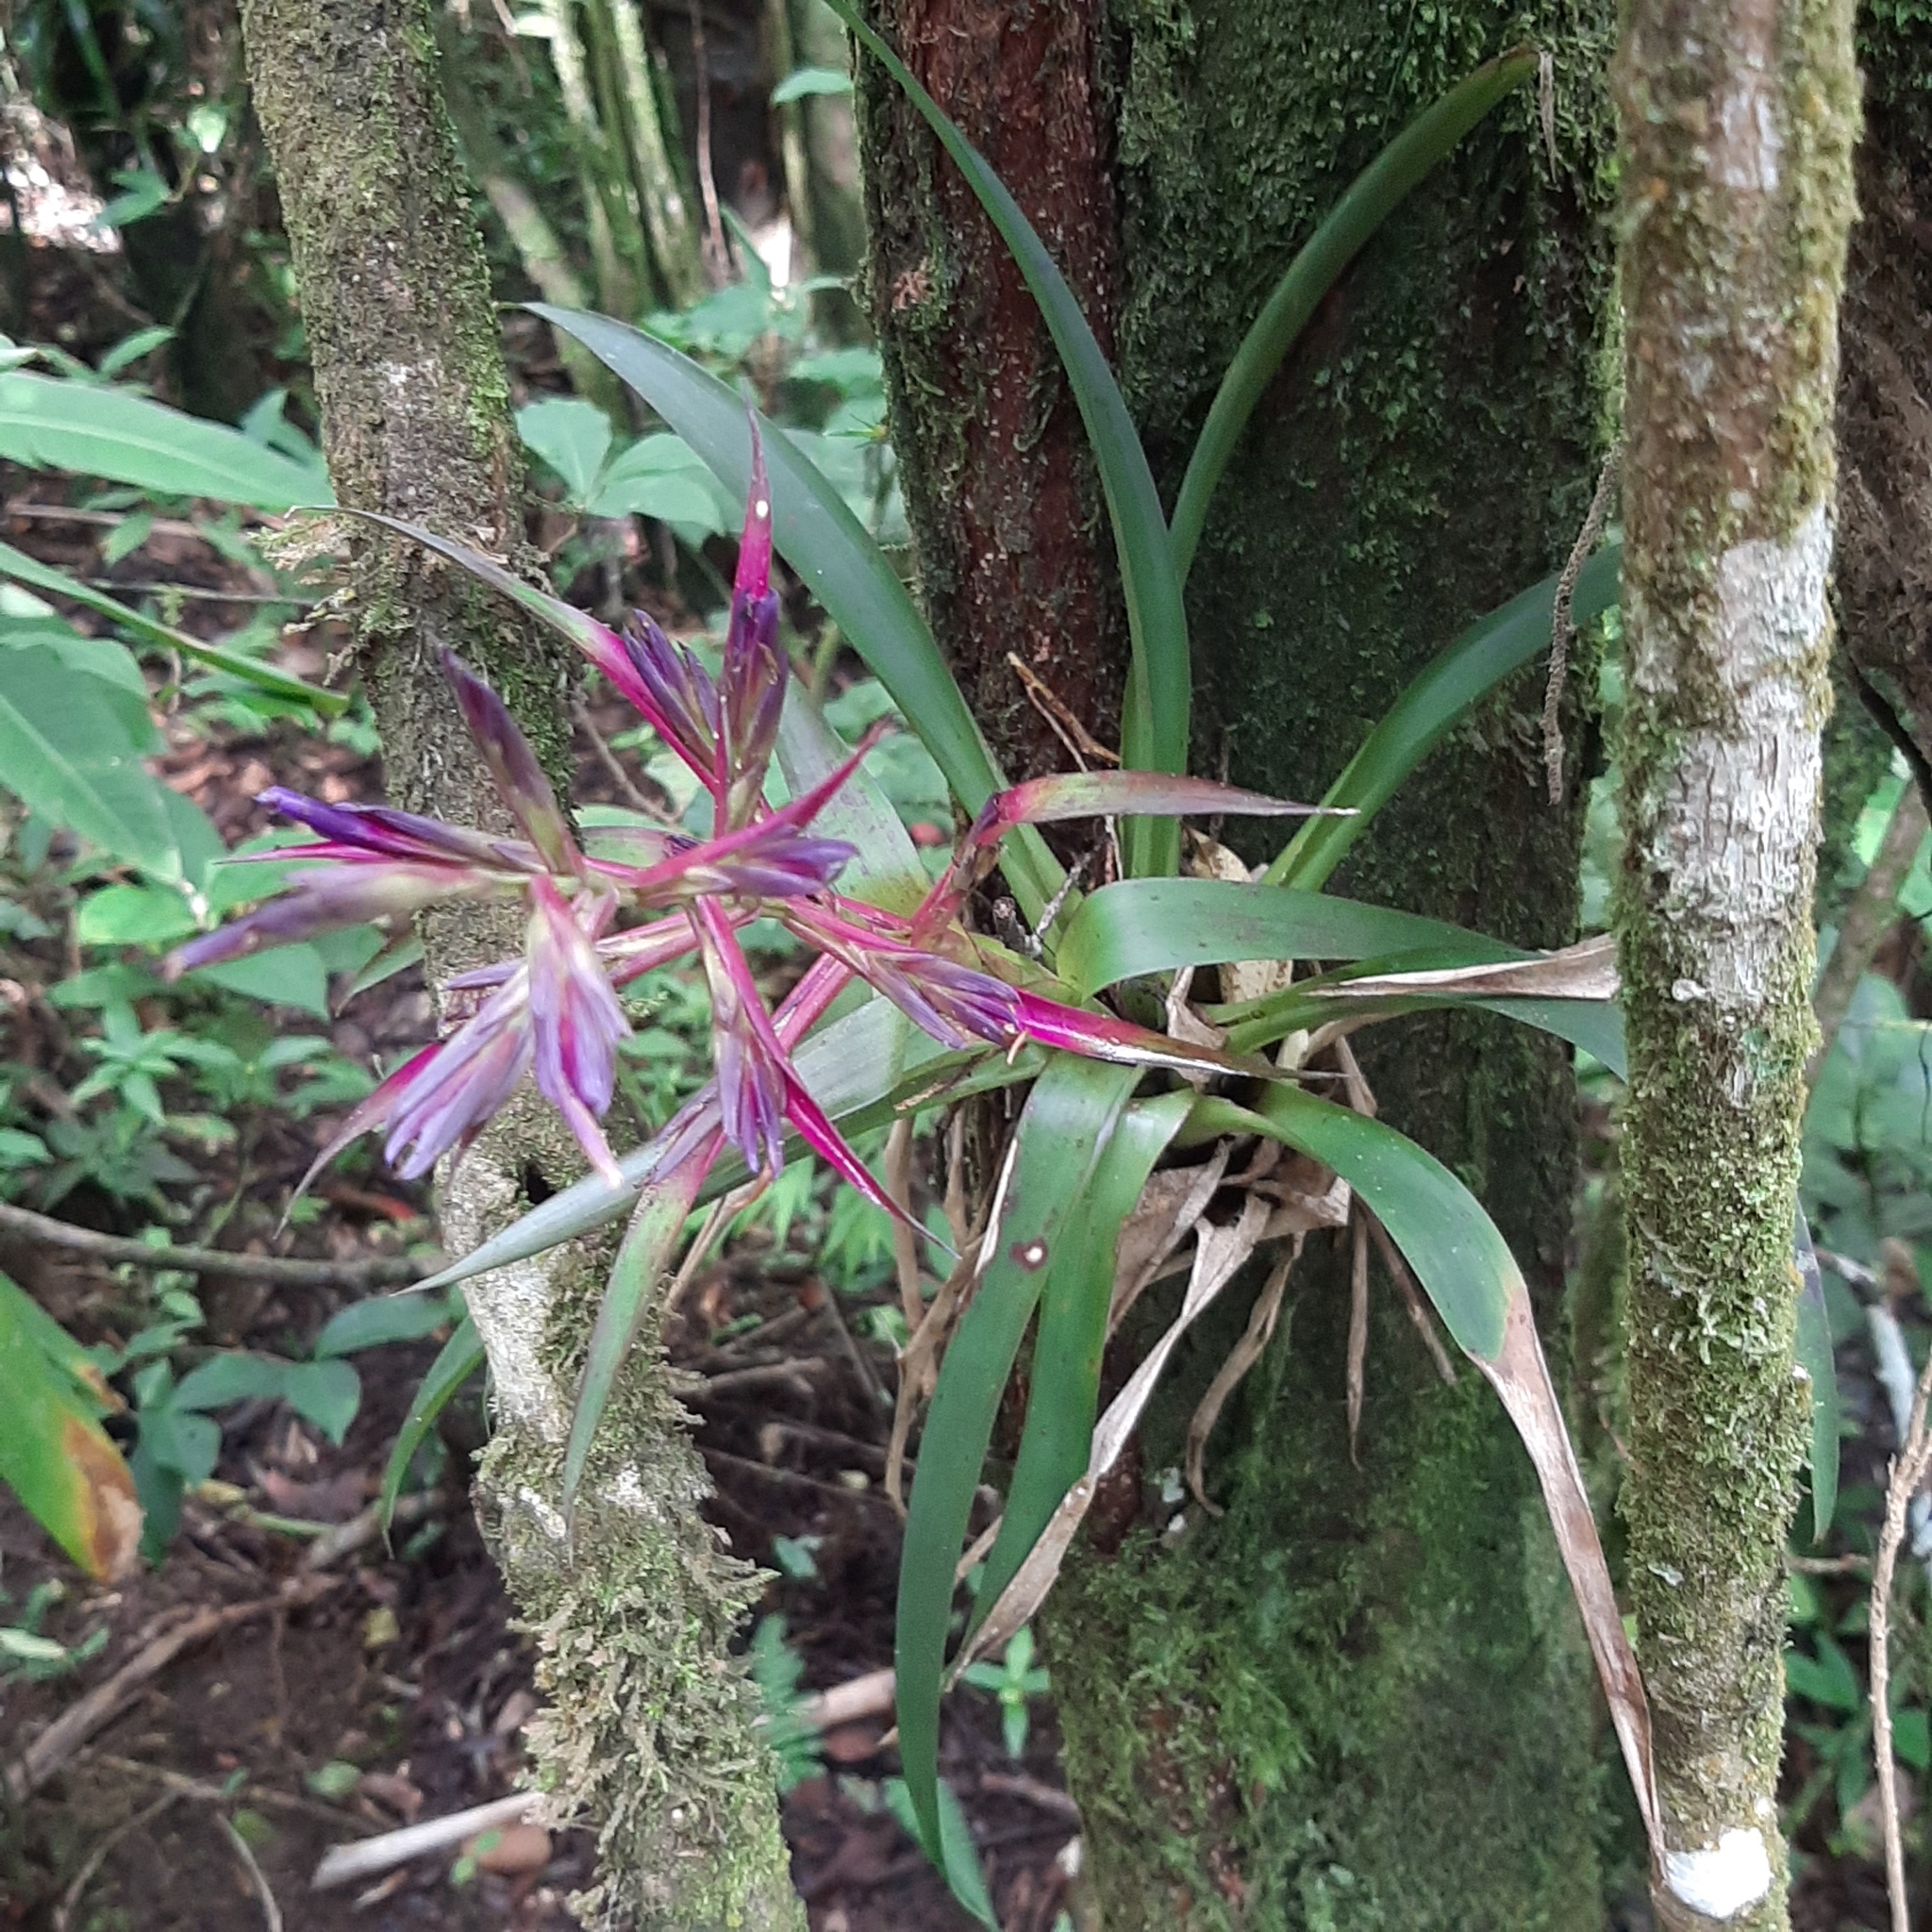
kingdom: Plantae
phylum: Tracheophyta
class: Liliopsida
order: Poales
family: Bromeliaceae
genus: Tillandsia
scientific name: Tillandsia leiboldiana
